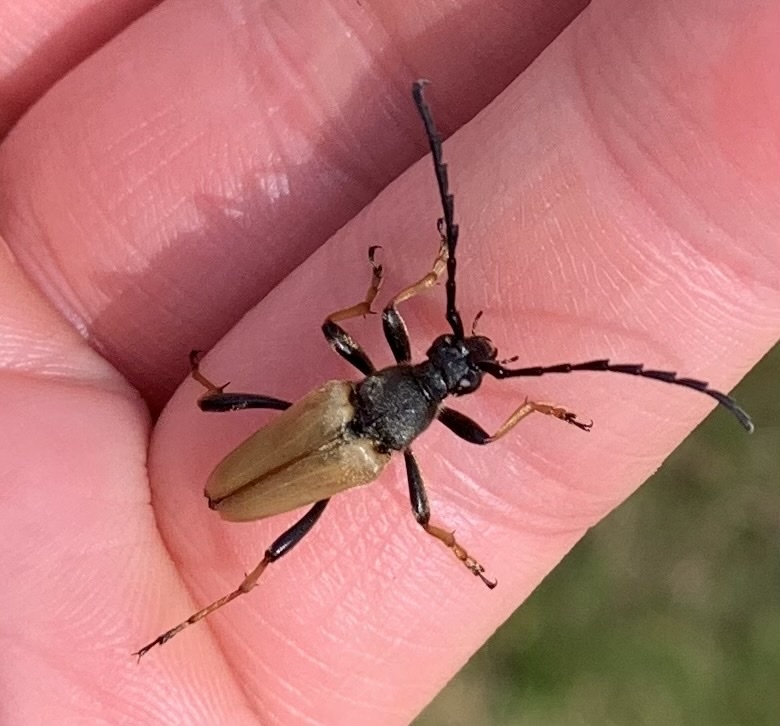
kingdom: Animalia
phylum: Arthropoda
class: Insecta
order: Coleoptera
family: Cerambycidae
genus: Stictoleptura
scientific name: Stictoleptura rubra
